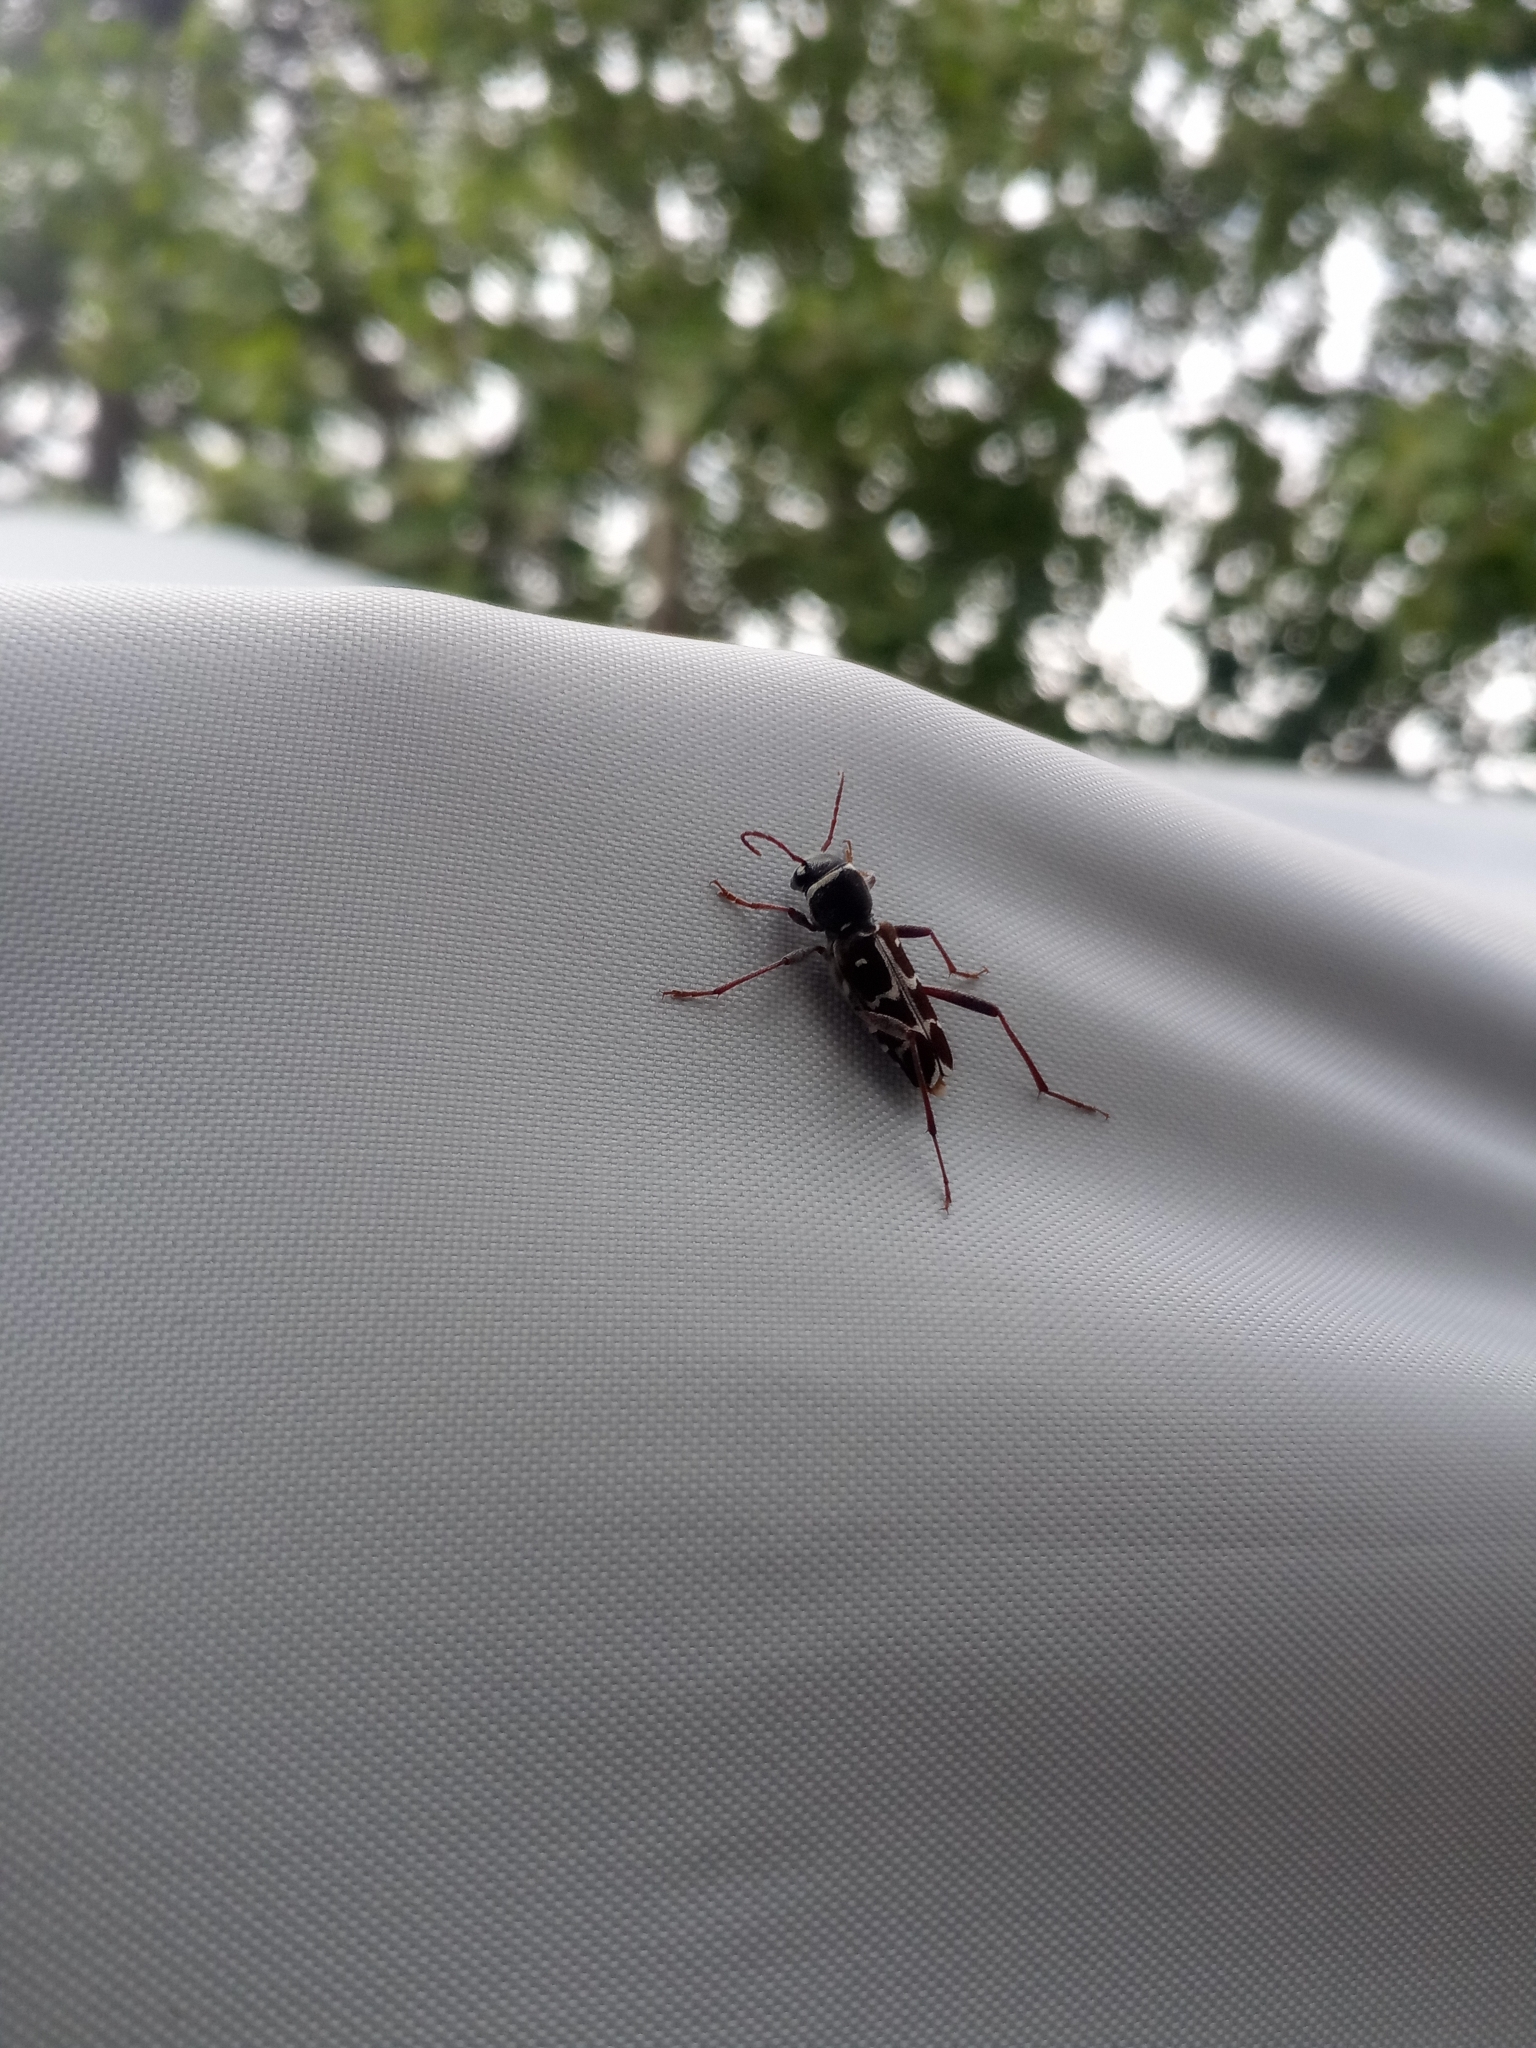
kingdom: Animalia
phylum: Arthropoda
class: Insecta
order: Coleoptera
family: Cerambycidae
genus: Clytus
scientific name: Clytus ruricola
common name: Round-necked longhorn beetle
